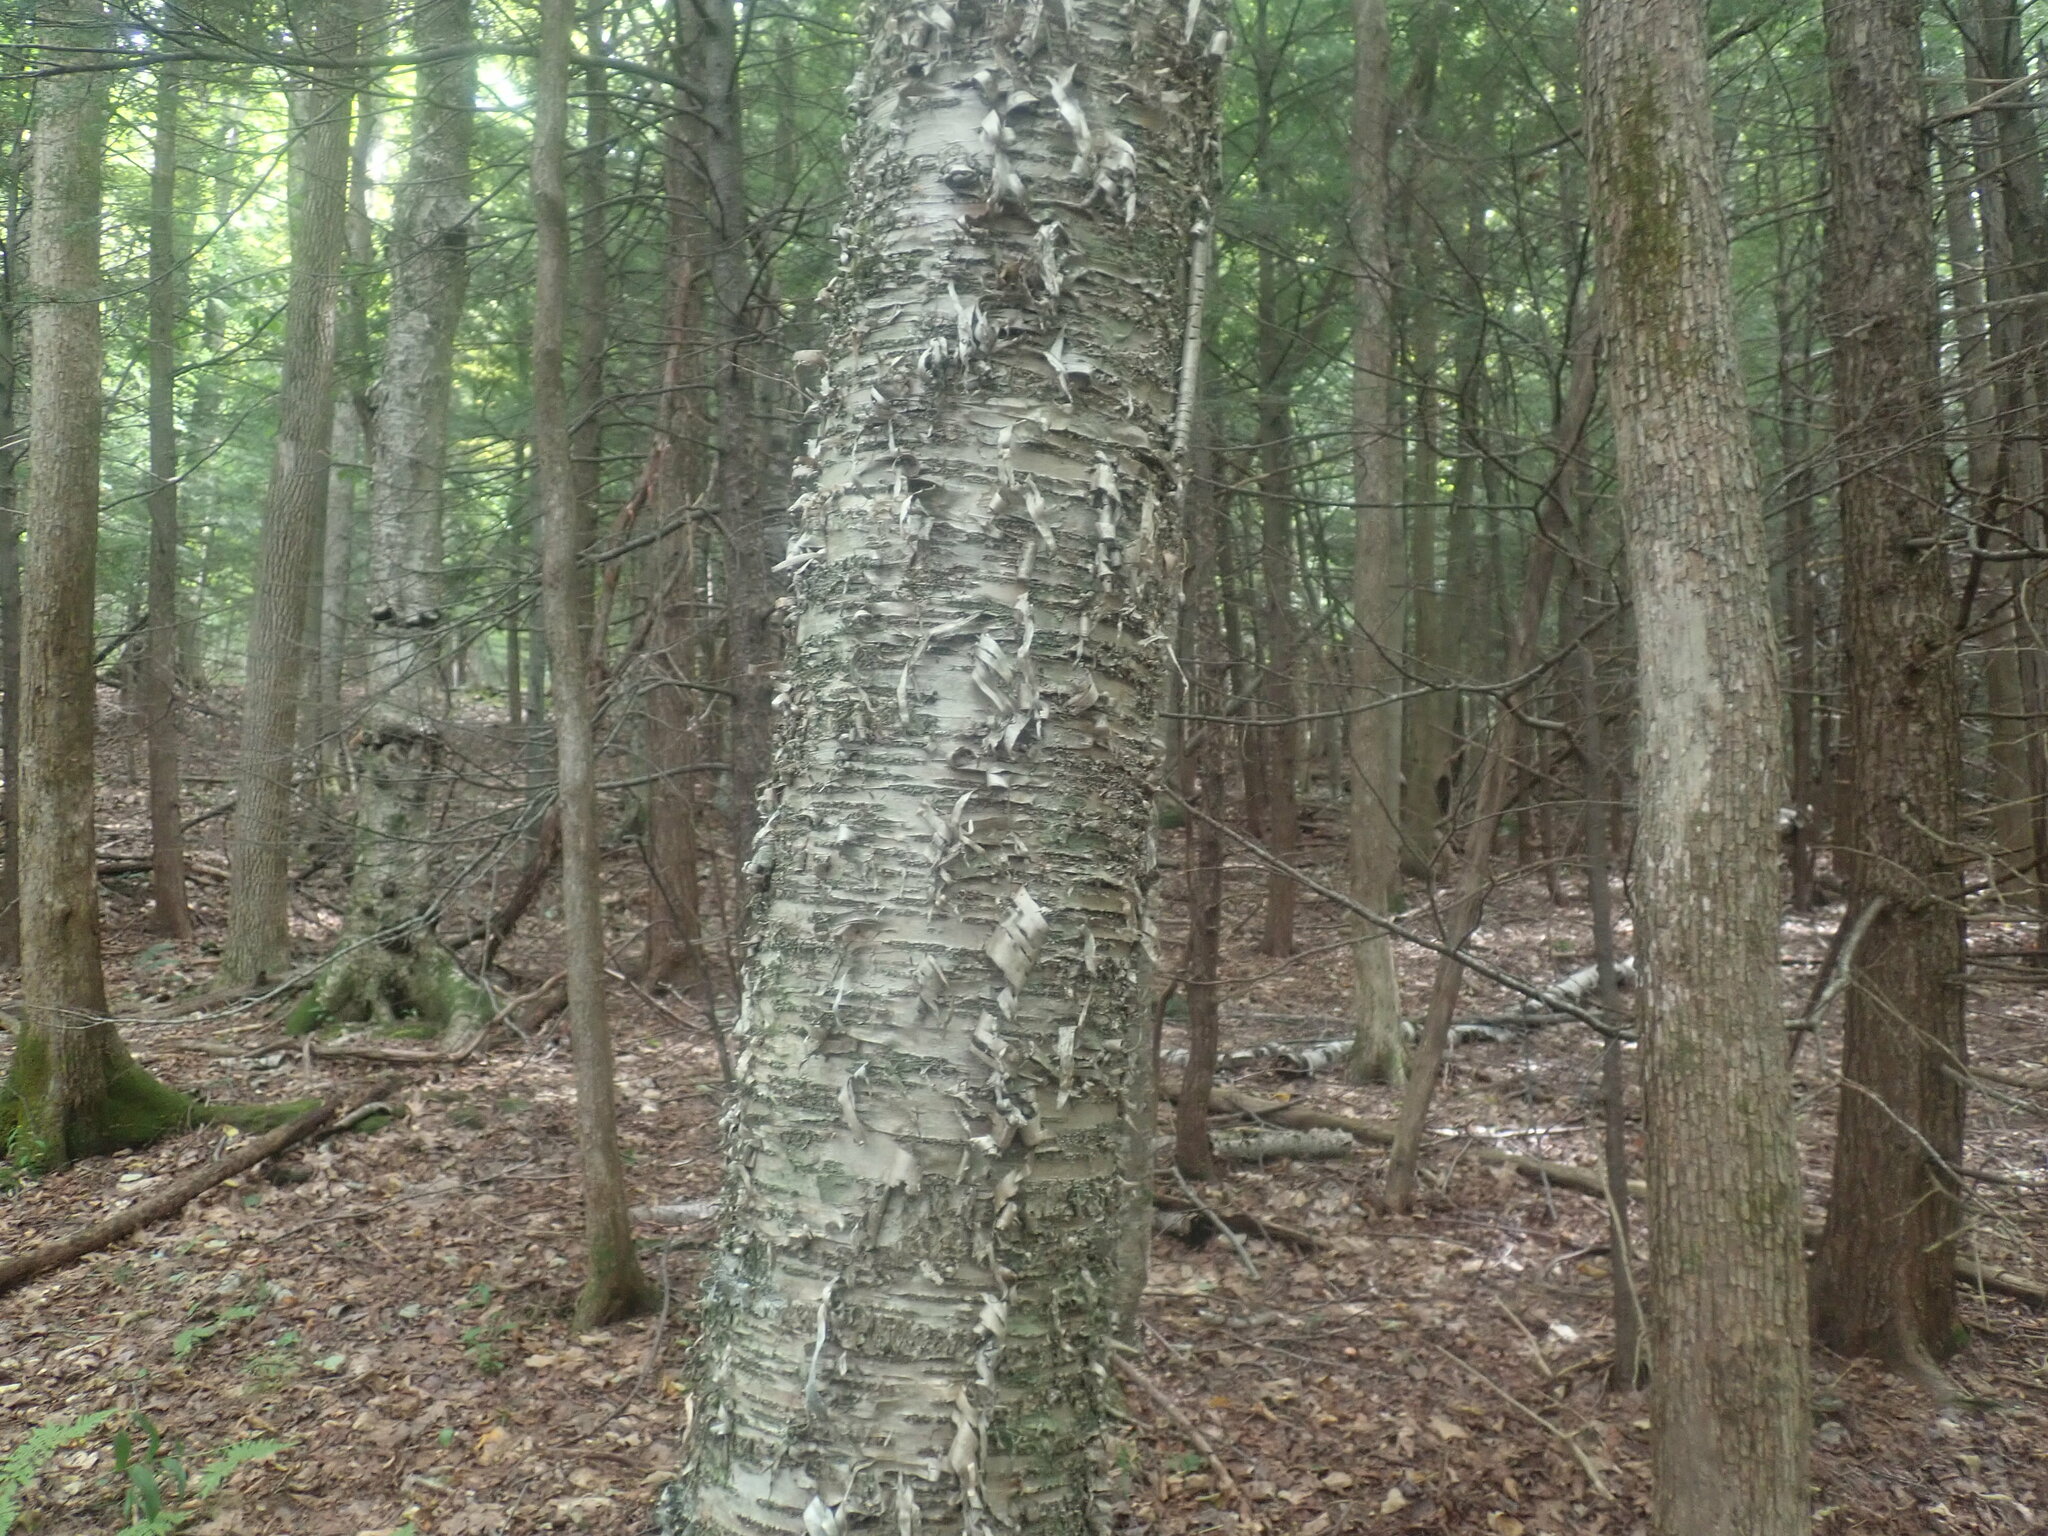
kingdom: Plantae
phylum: Tracheophyta
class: Magnoliopsida
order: Fagales
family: Betulaceae
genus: Betula
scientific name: Betula alleghaniensis
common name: Yellow birch
